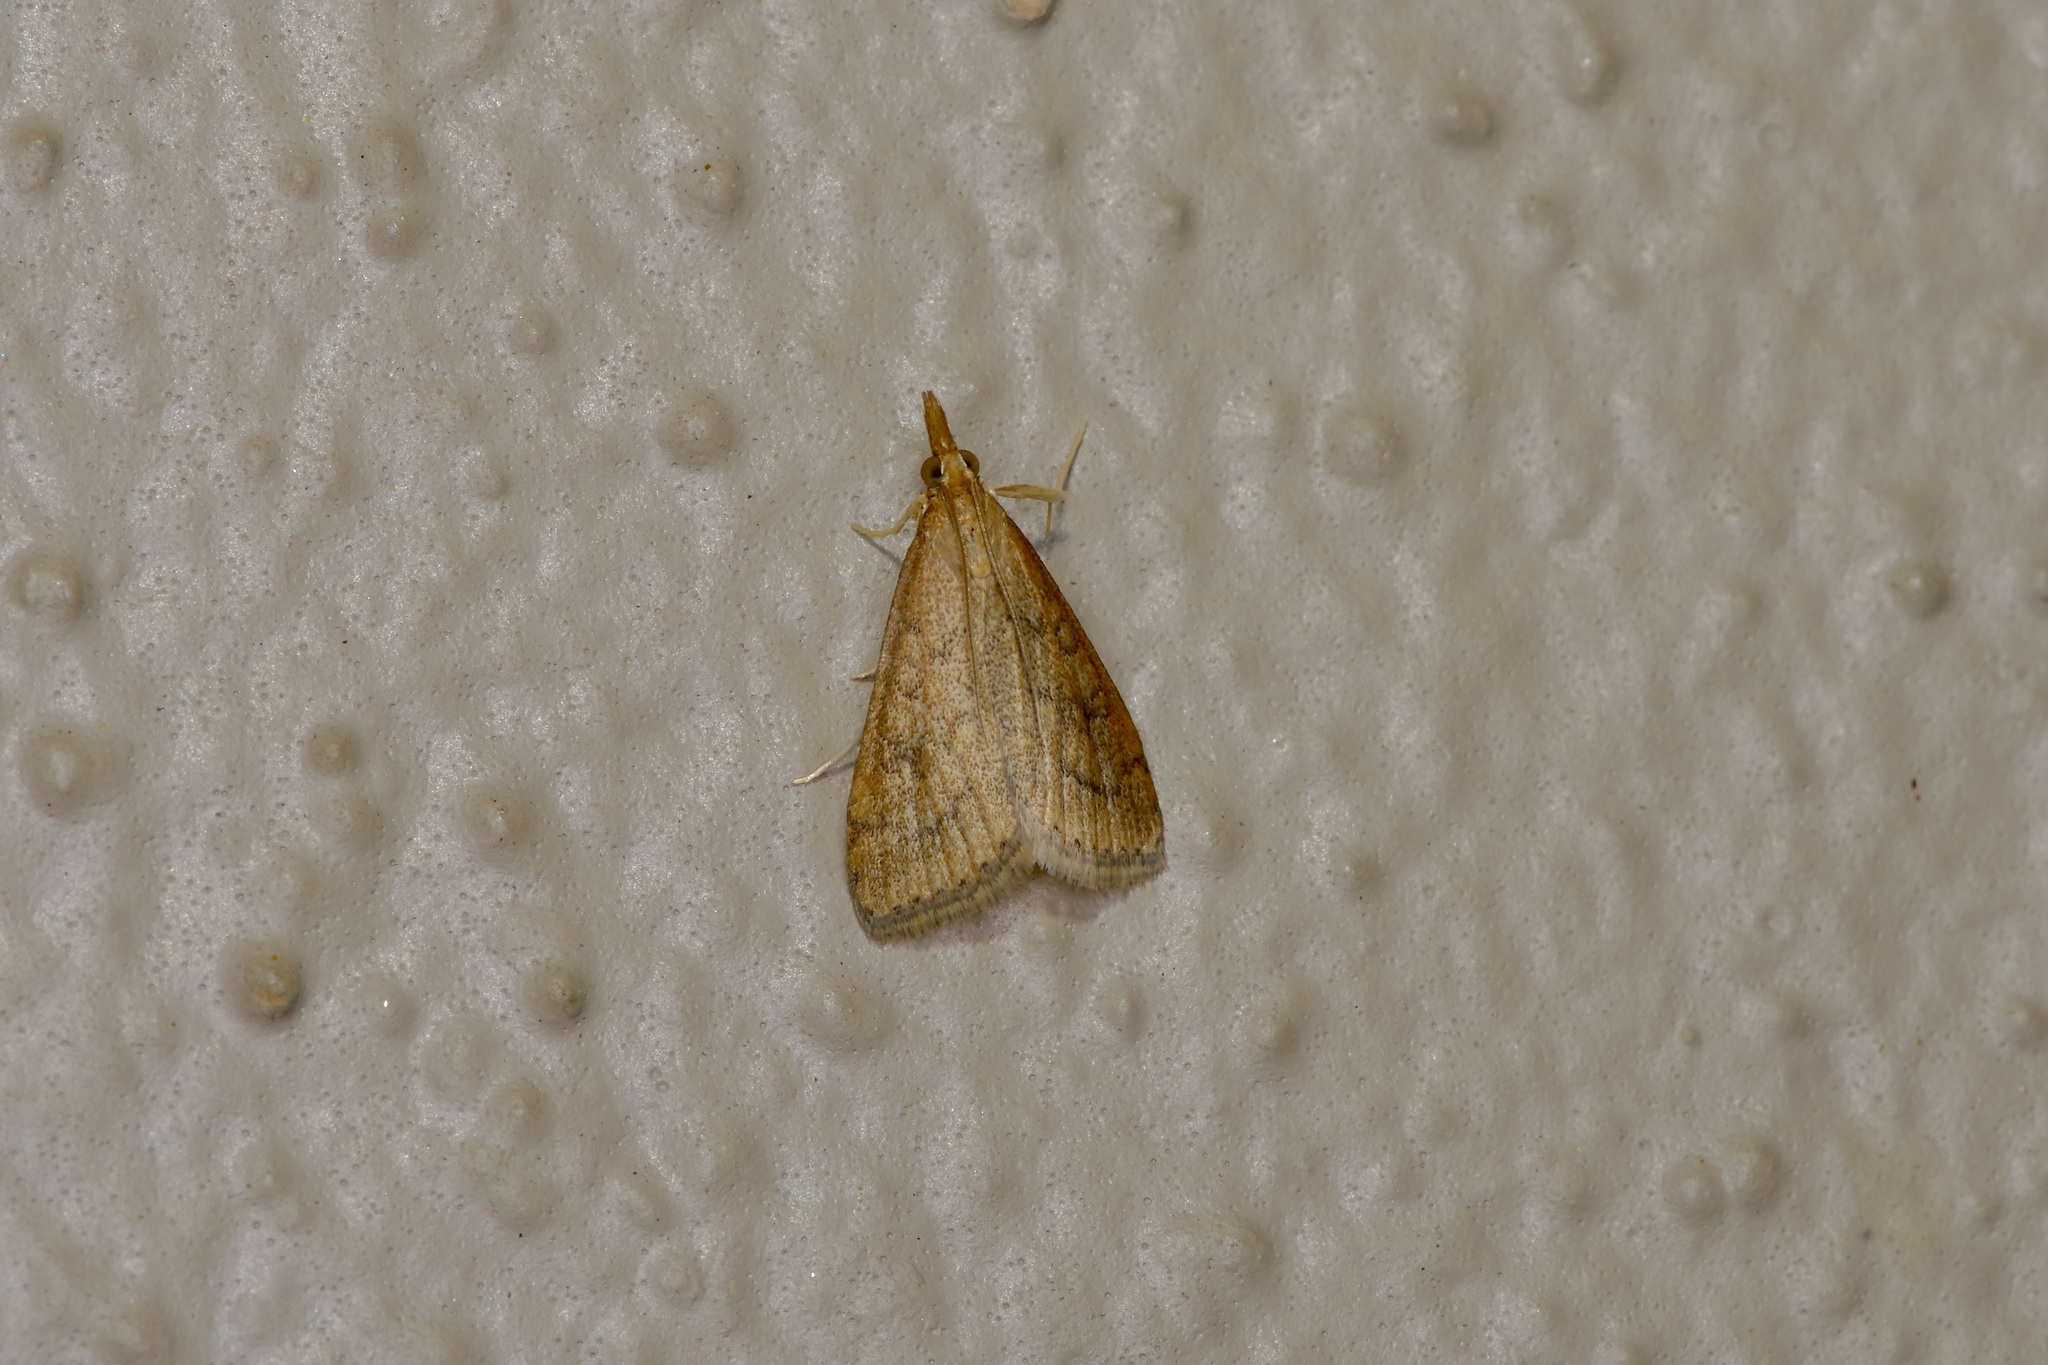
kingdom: Animalia
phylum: Arthropoda
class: Insecta
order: Lepidoptera
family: Crambidae
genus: Udea
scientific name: Udea rubigalis
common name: Celery leaftier moth
